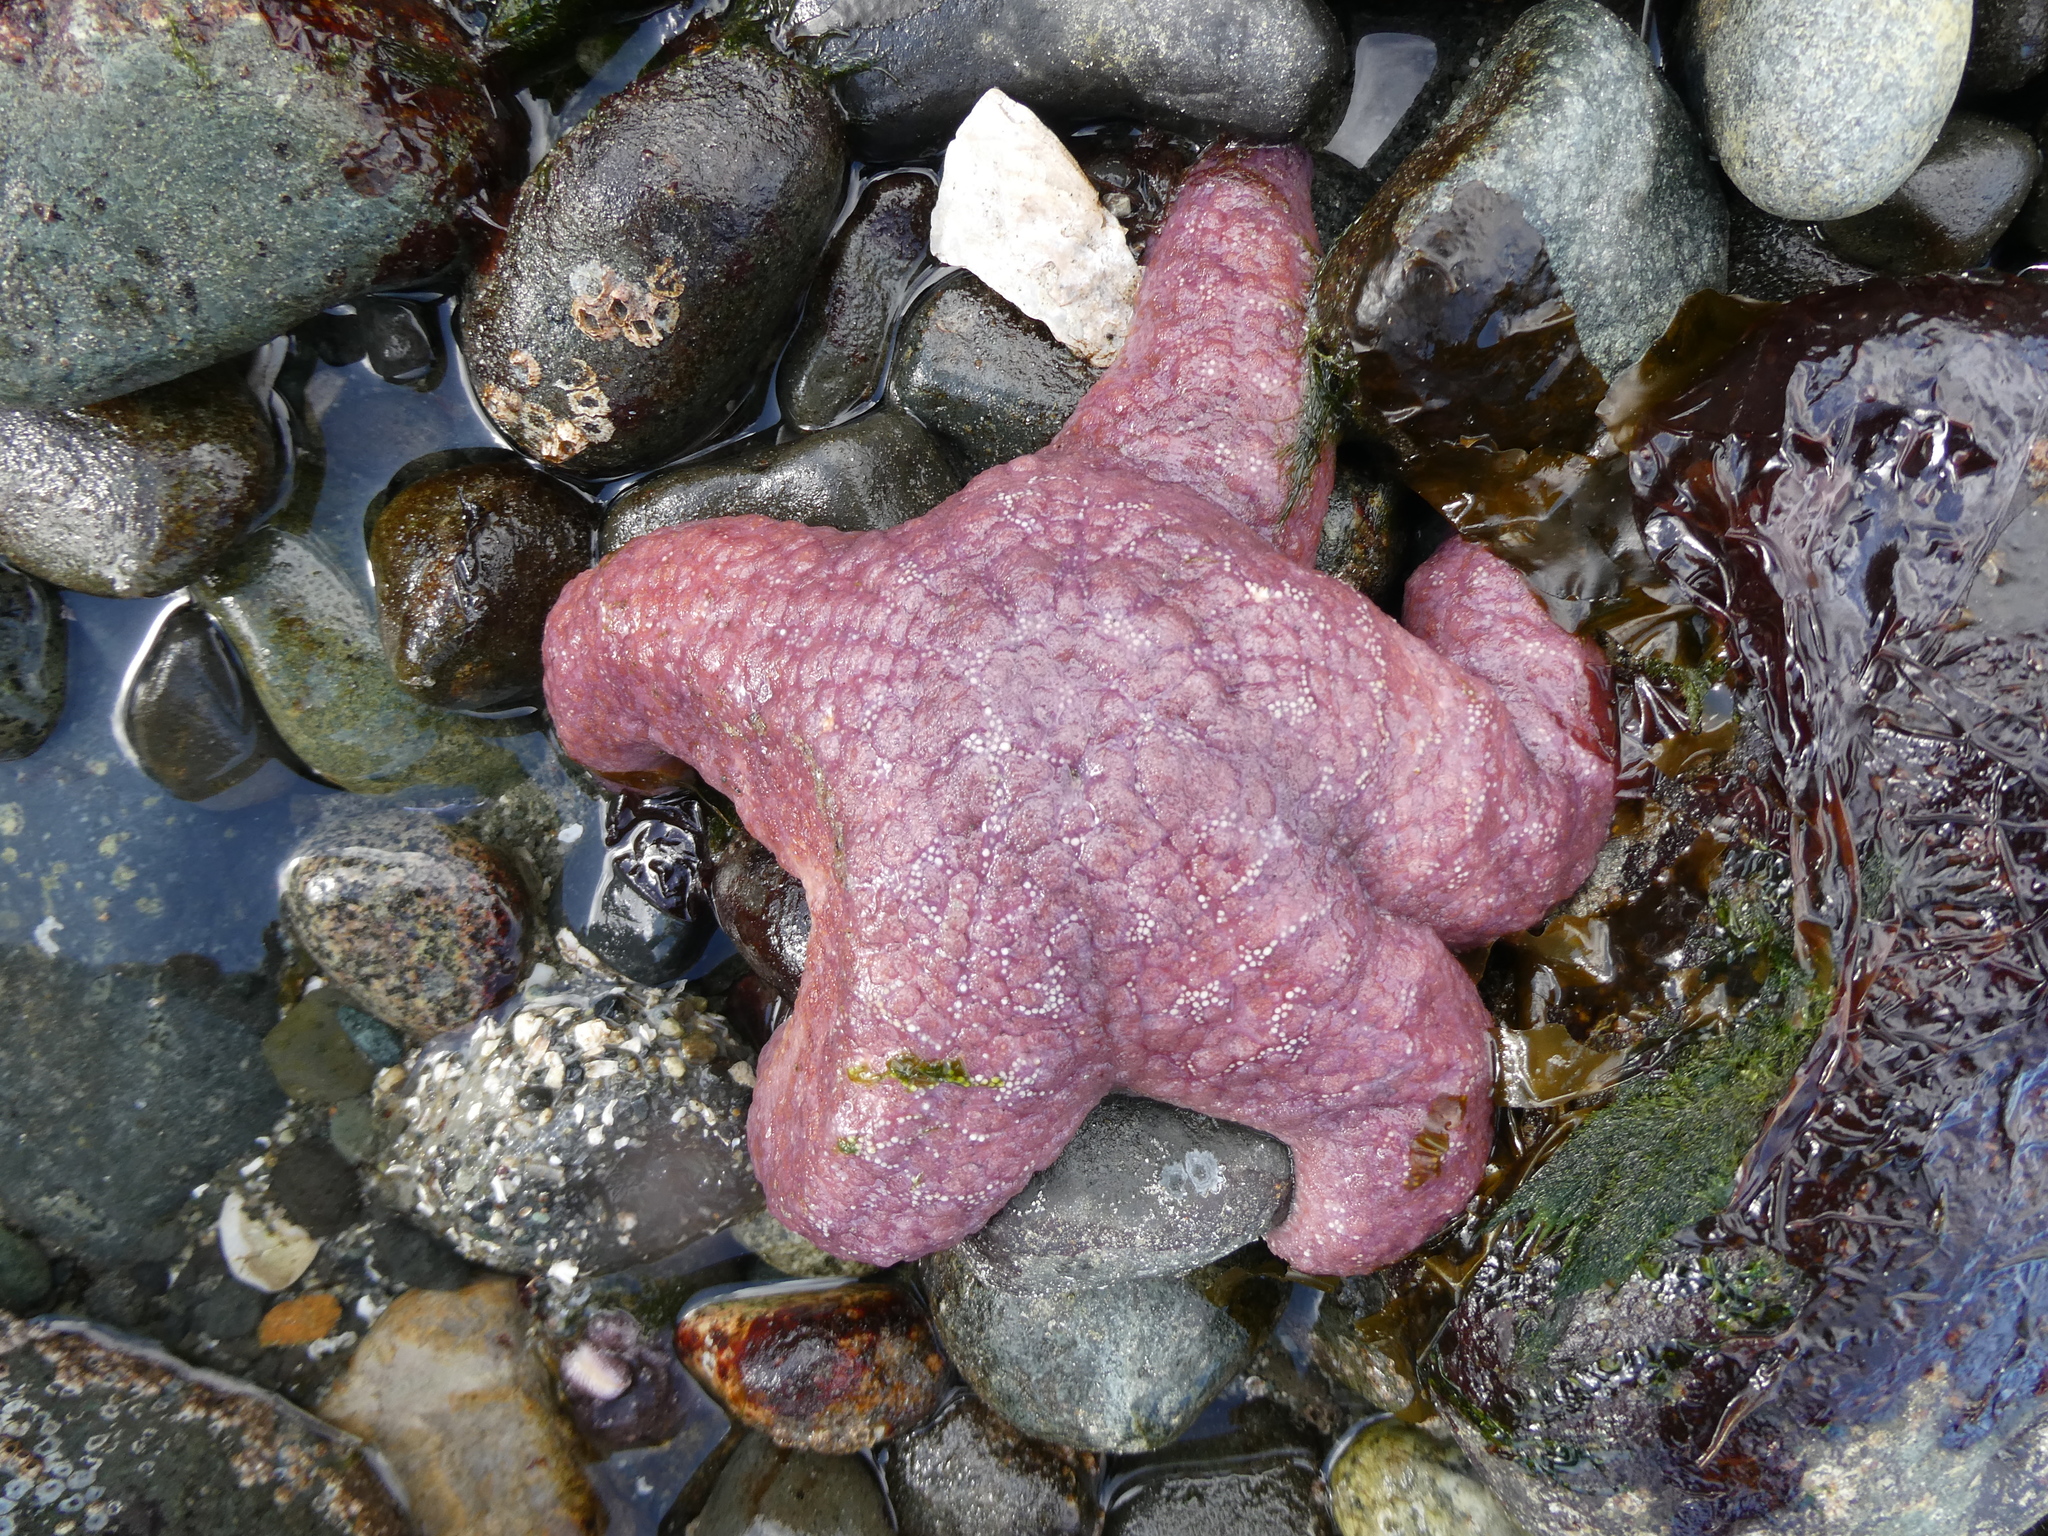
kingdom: Animalia
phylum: Echinodermata
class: Asteroidea
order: Forcipulatida
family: Asteriidae
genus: Pisaster
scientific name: Pisaster ochraceus
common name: Ochre stars
